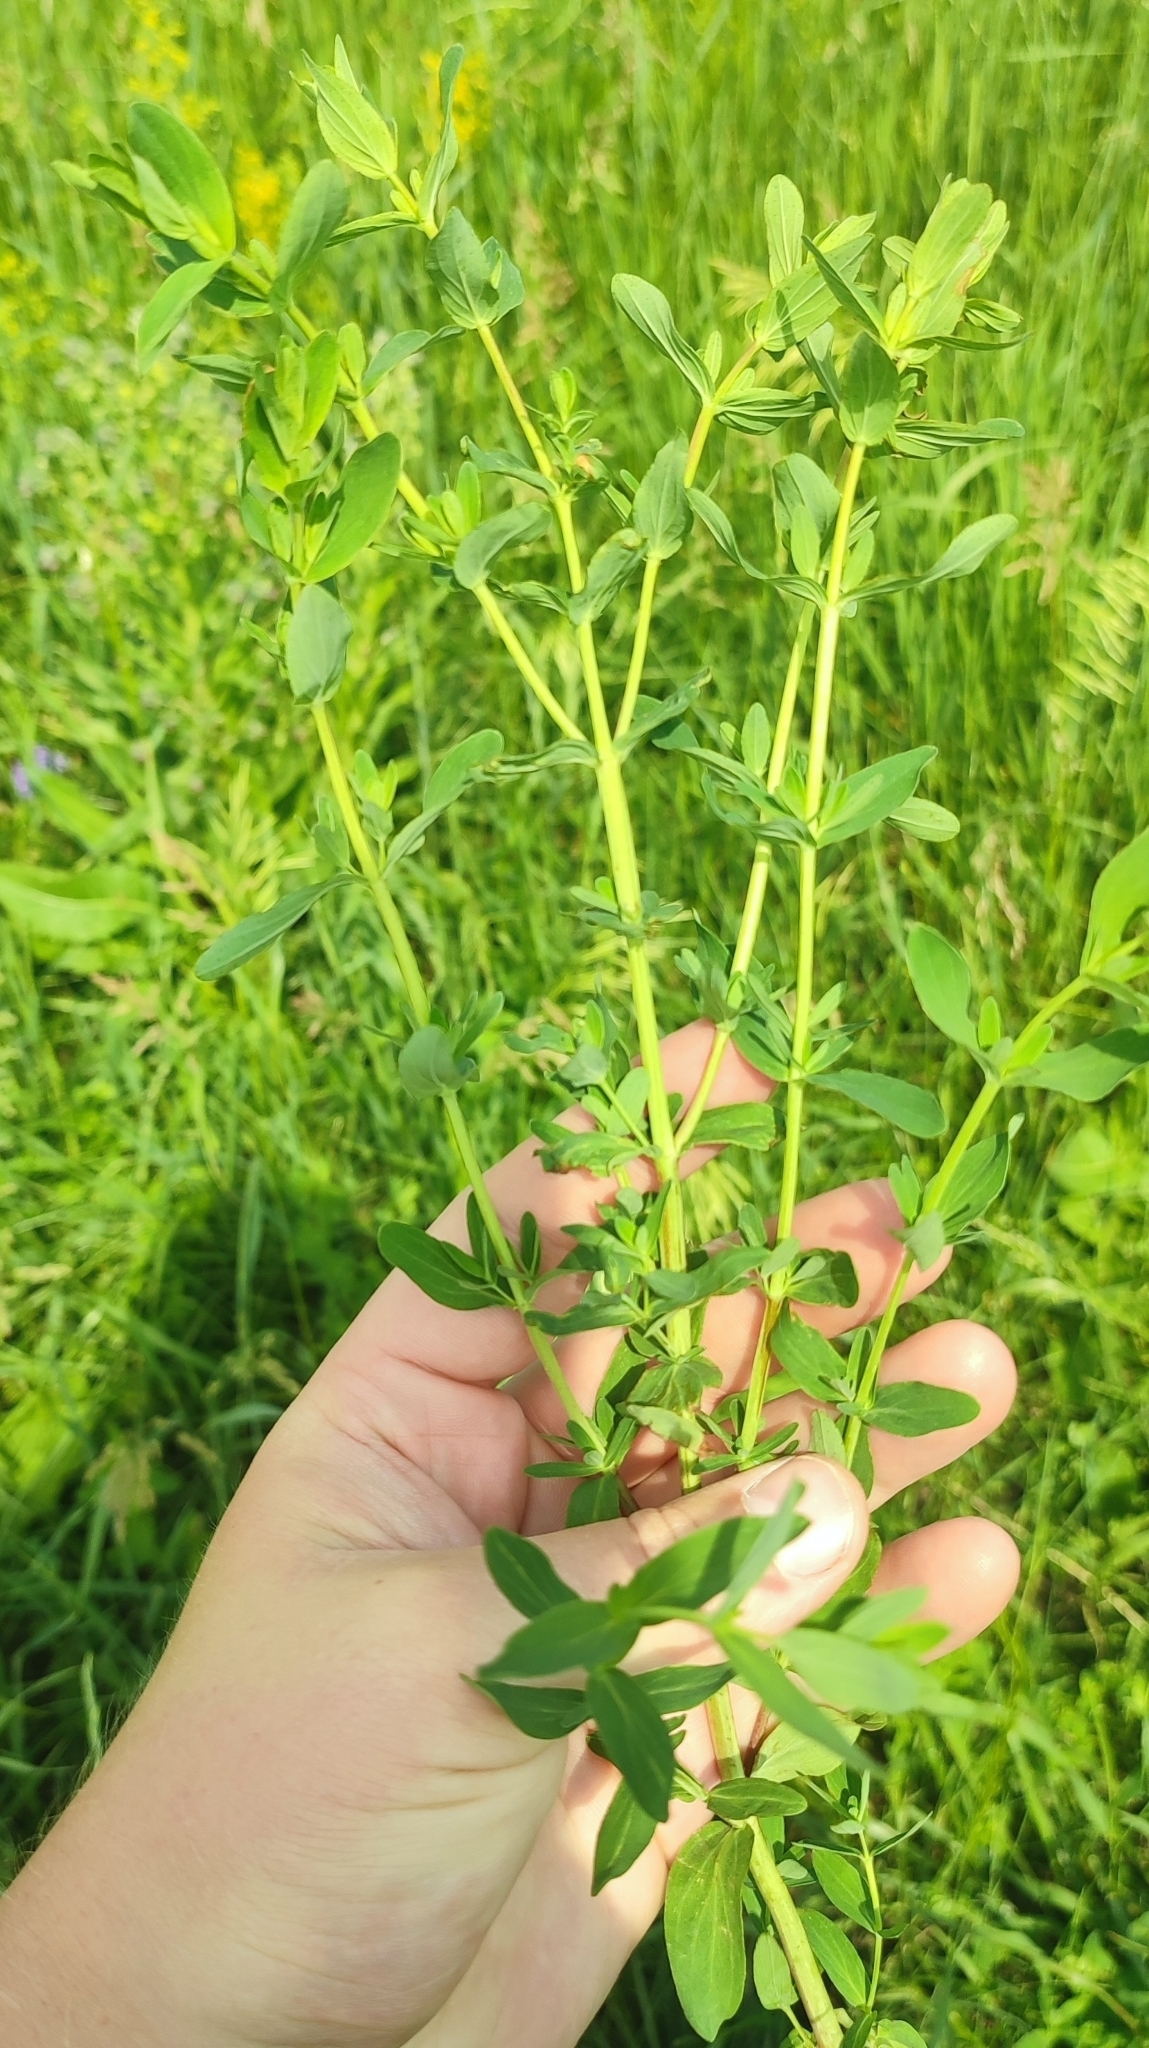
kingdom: Plantae
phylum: Tracheophyta
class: Magnoliopsida
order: Malpighiales
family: Hypericaceae
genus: Hypericum
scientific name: Hypericum perforatum
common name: Common st. johnswort
